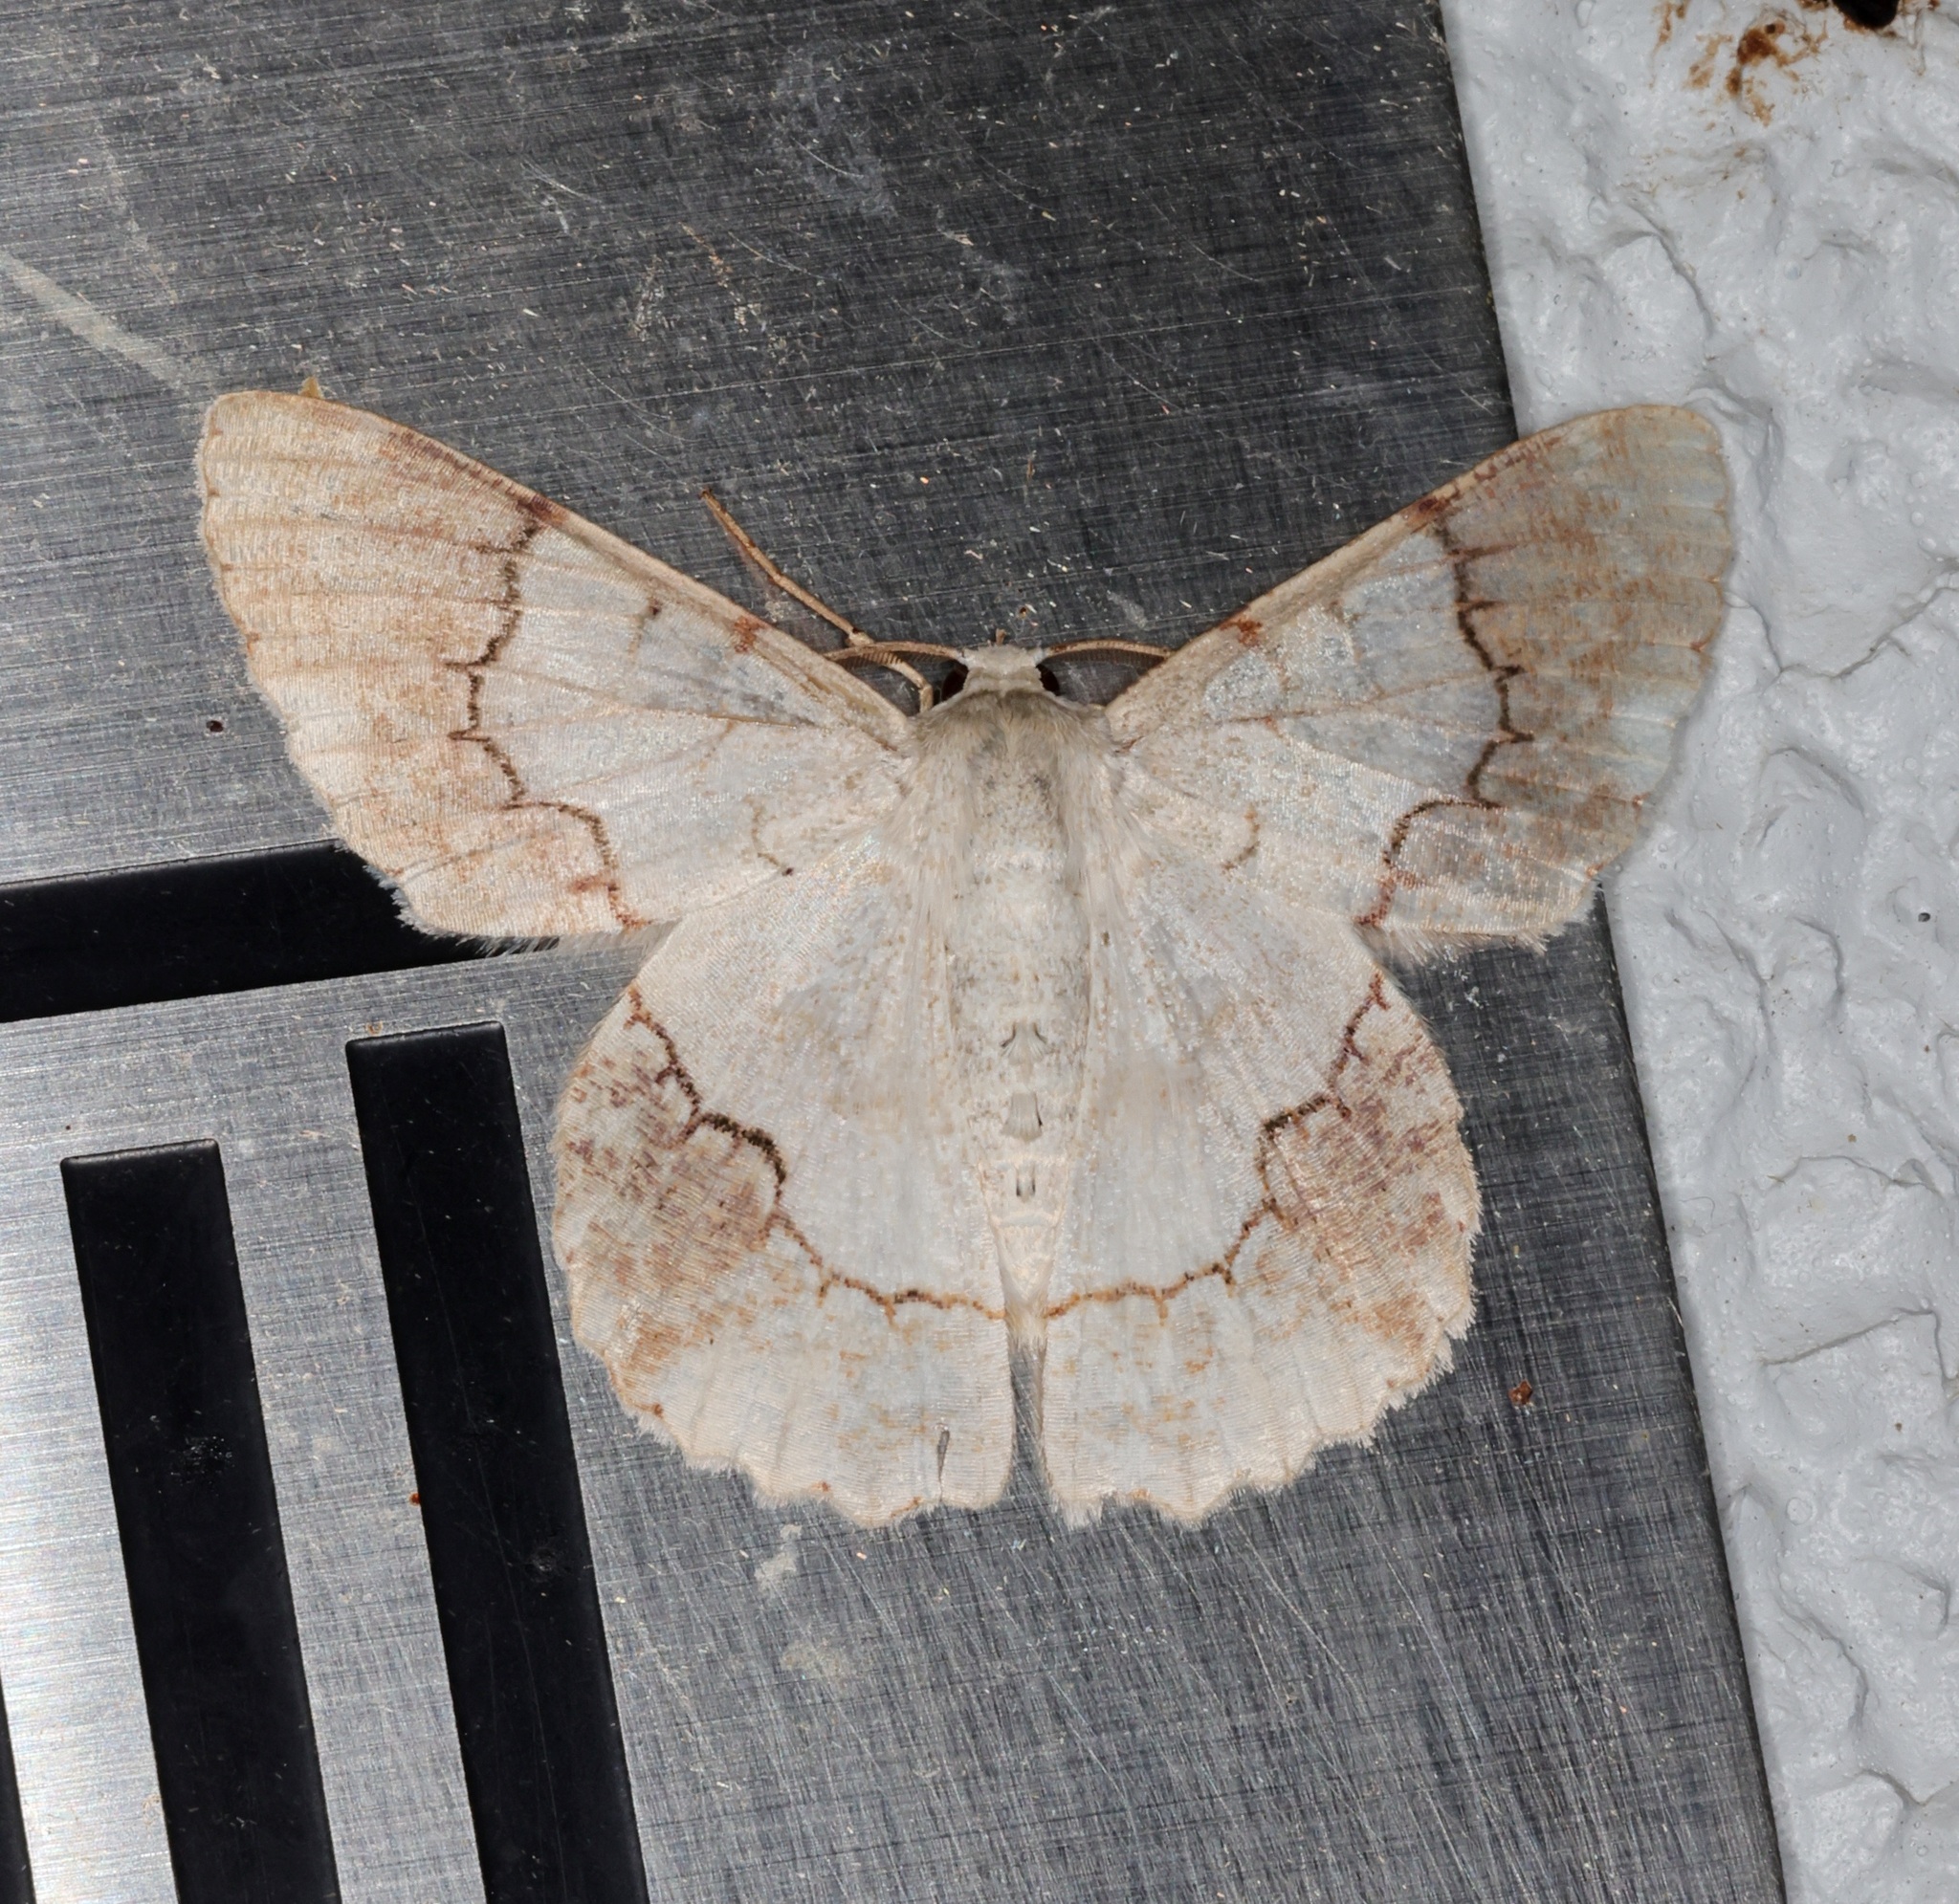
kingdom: Animalia
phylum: Arthropoda
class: Insecta
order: Lepidoptera
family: Geometridae
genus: Pingasa
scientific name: Pingasa ruginaria
